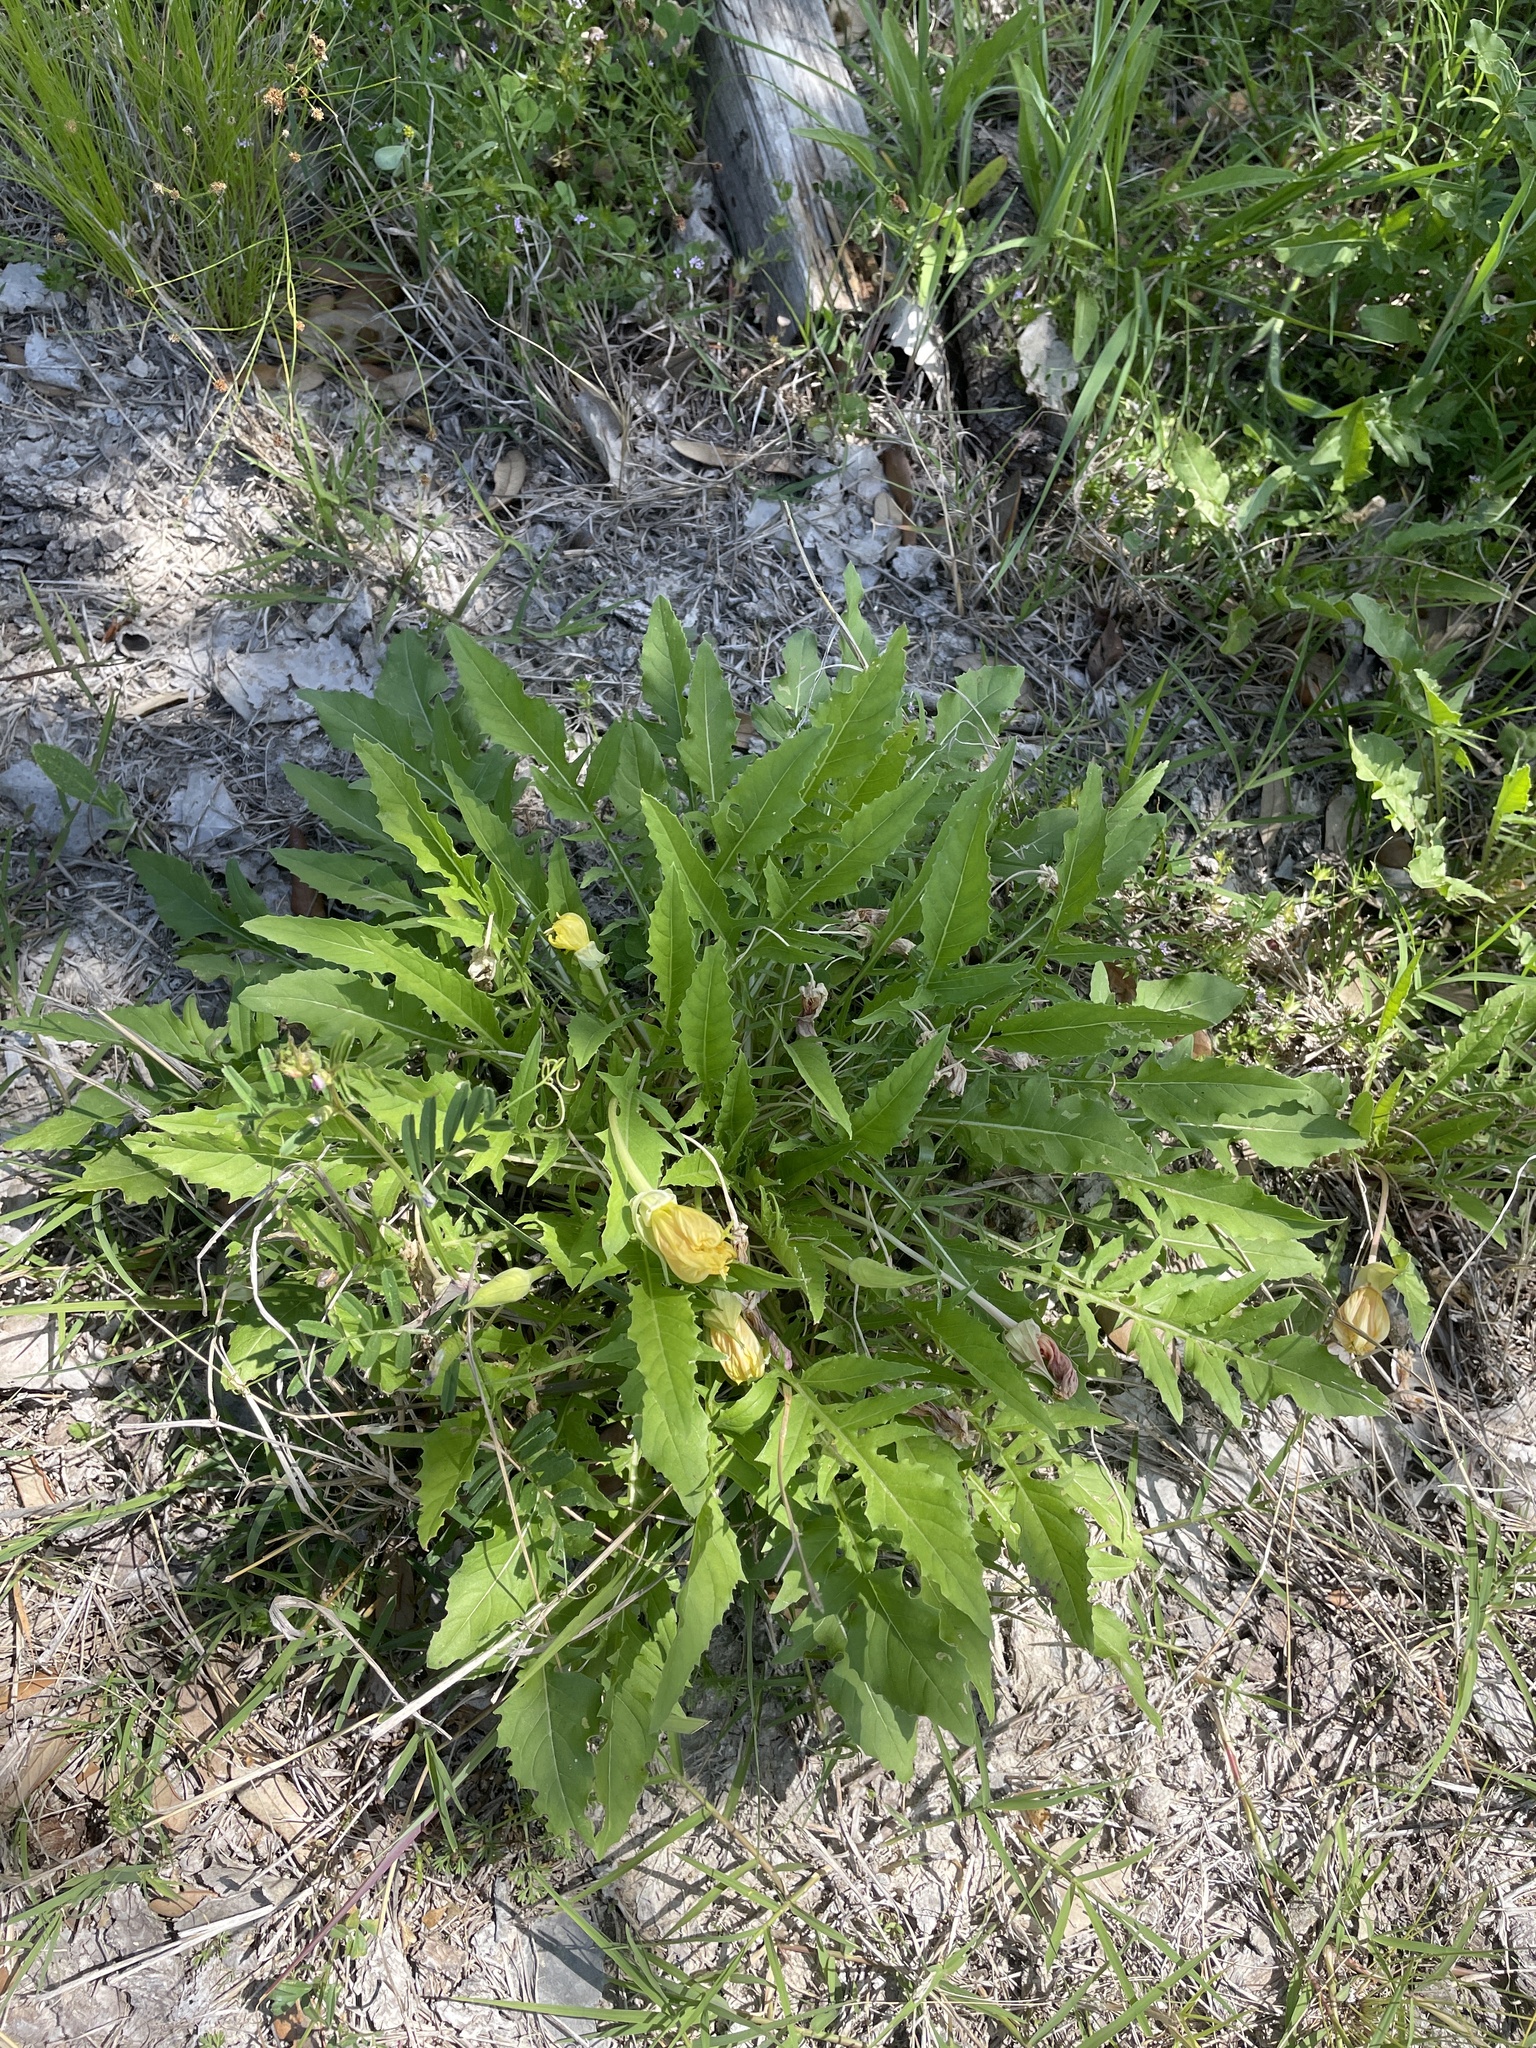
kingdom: Plantae
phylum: Tracheophyta
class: Magnoliopsida
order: Myrtales
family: Onagraceae
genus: Oenothera
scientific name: Oenothera triloba
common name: Sessile evening-primrose
